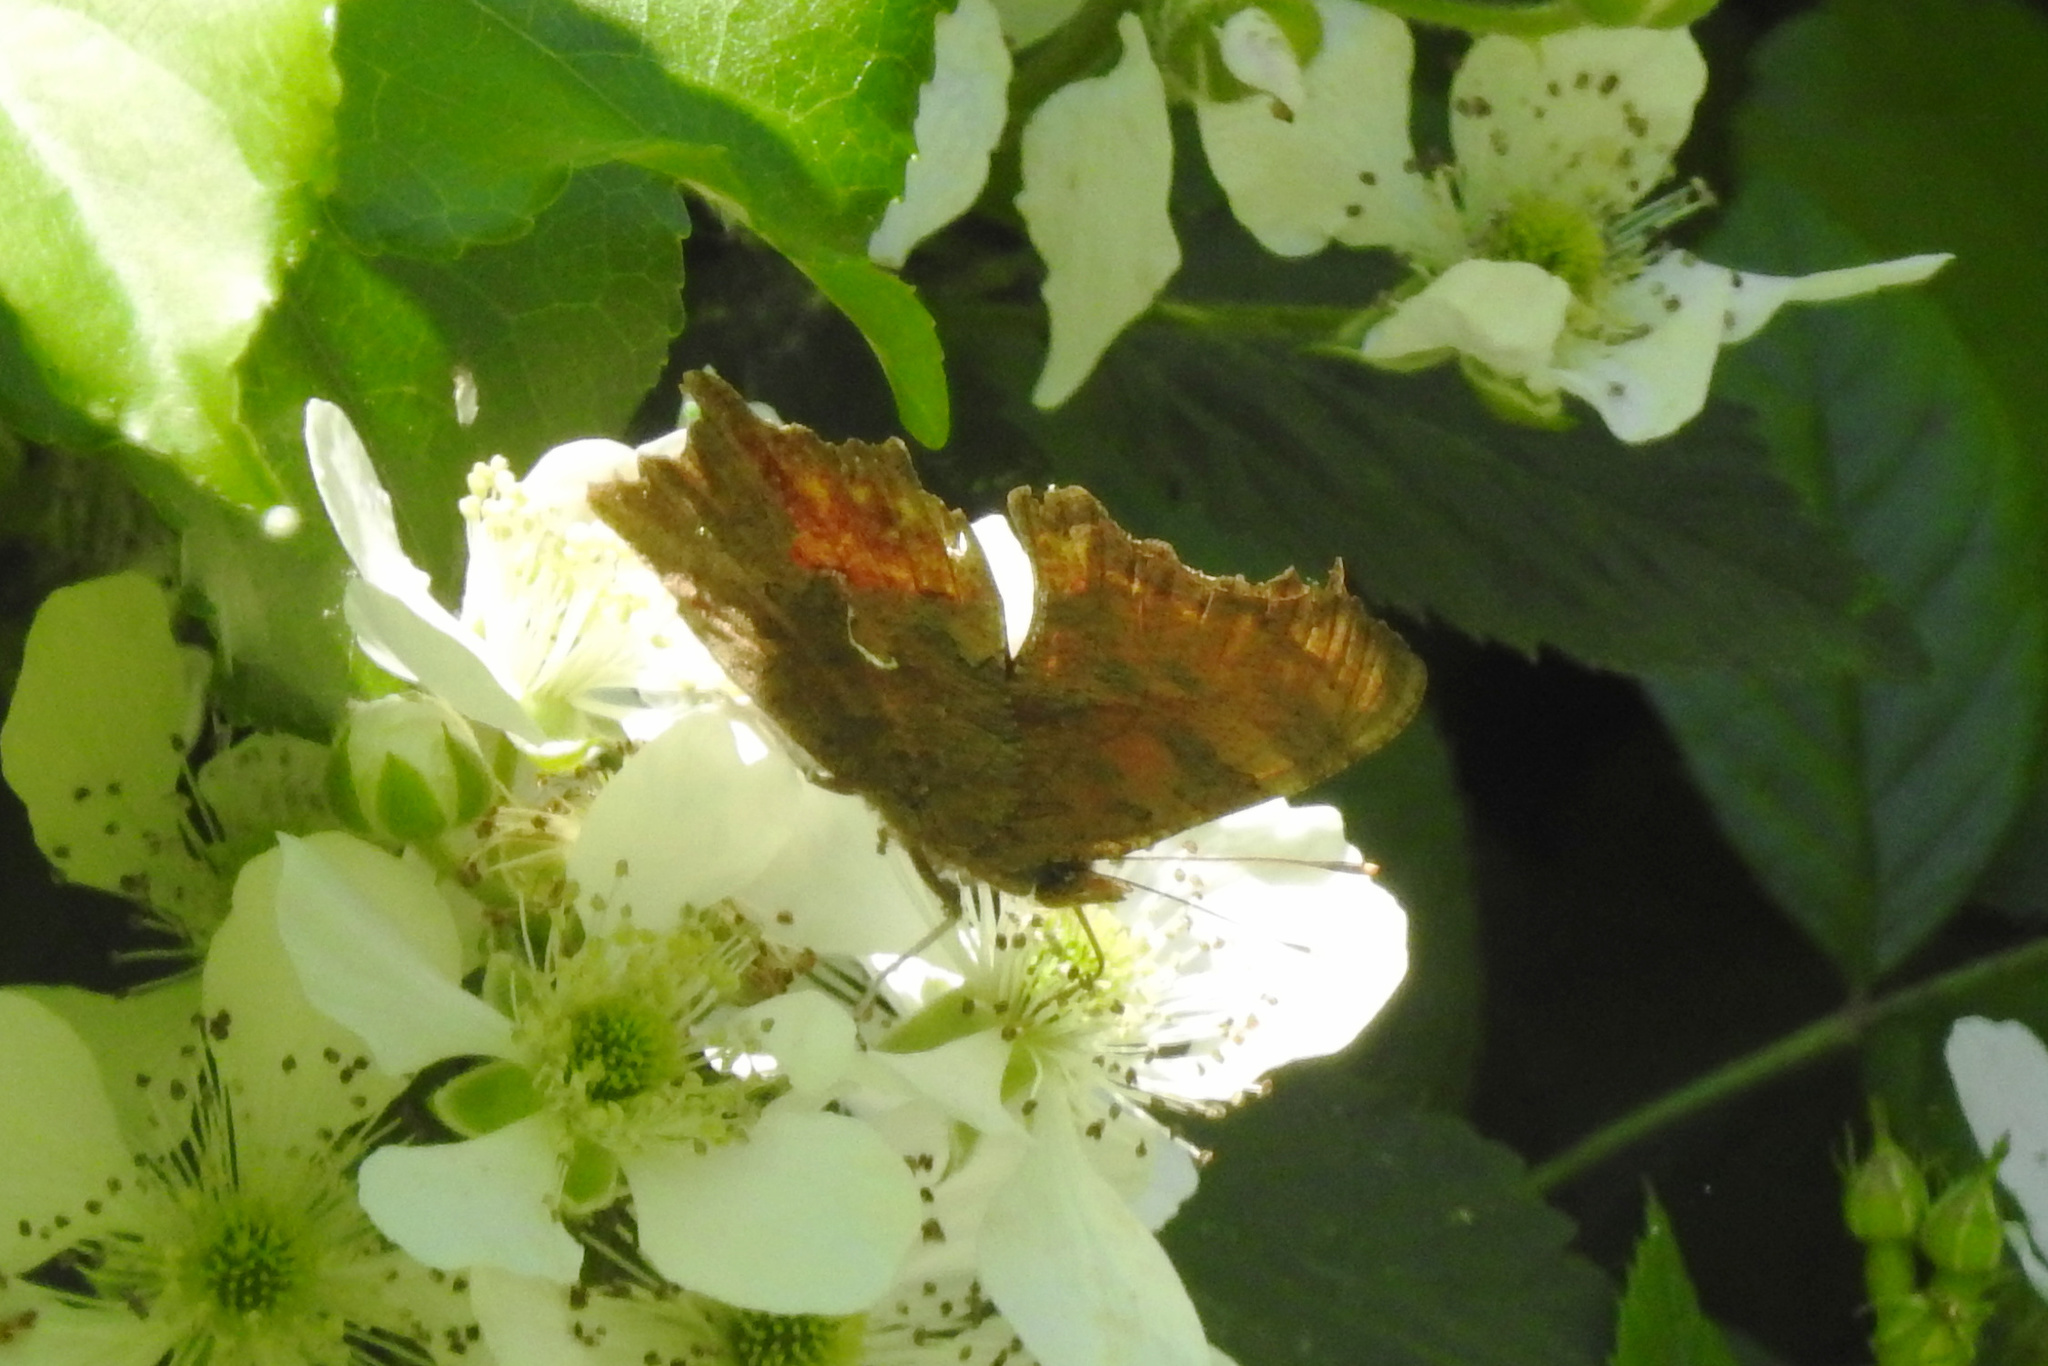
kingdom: Animalia
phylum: Arthropoda
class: Insecta
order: Lepidoptera
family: Nymphalidae
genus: Polygonia
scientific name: Polygonia comma
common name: Eastern comma
